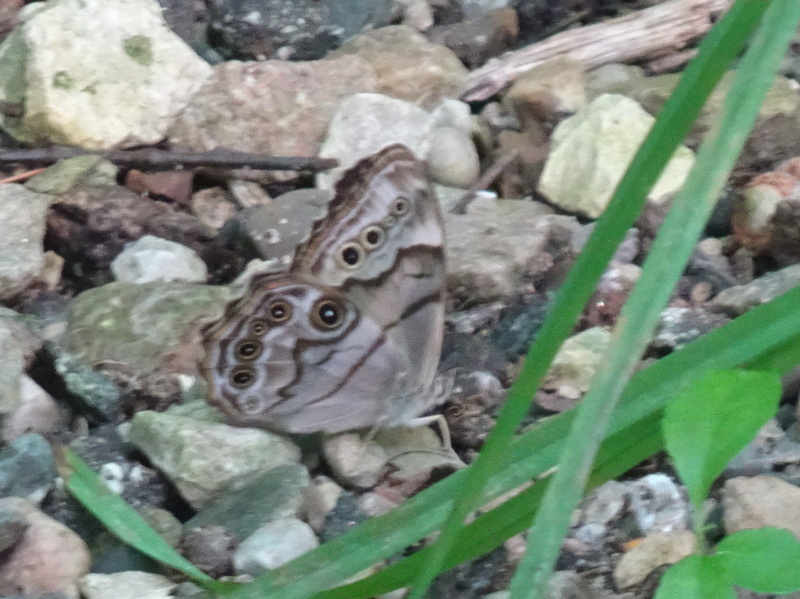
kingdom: Animalia
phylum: Arthropoda
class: Insecta
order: Lepidoptera
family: Nymphalidae
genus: Lethe
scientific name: Lethe anthedon
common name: Northern pearly-eye
